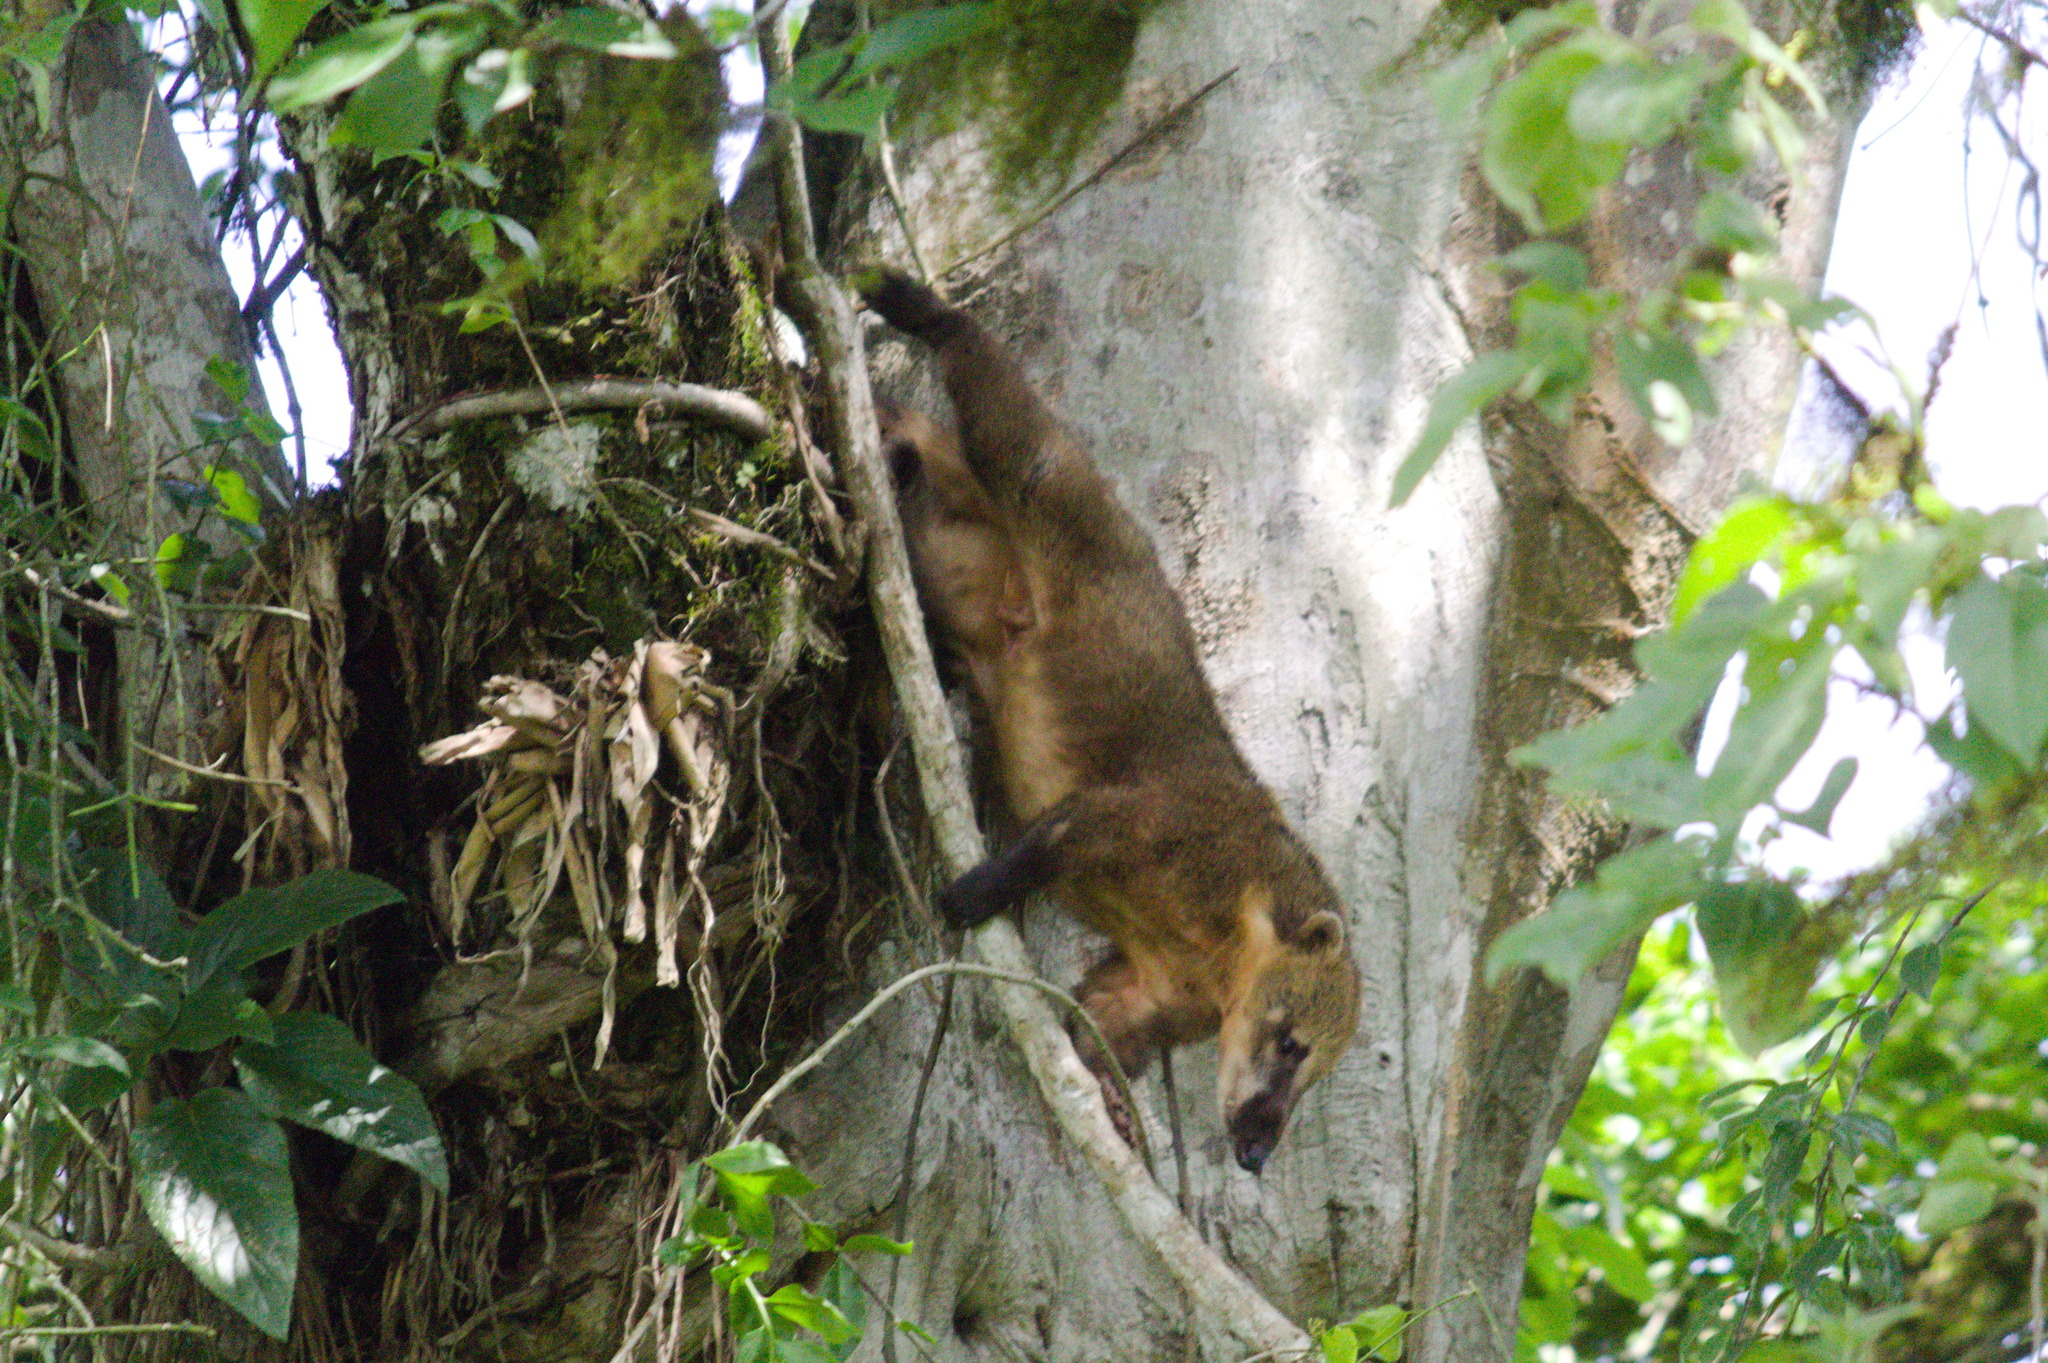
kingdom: Animalia
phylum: Chordata
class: Mammalia
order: Carnivora
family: Procyonidae
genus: Nasua
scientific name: Nasua nasua
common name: South american coati
